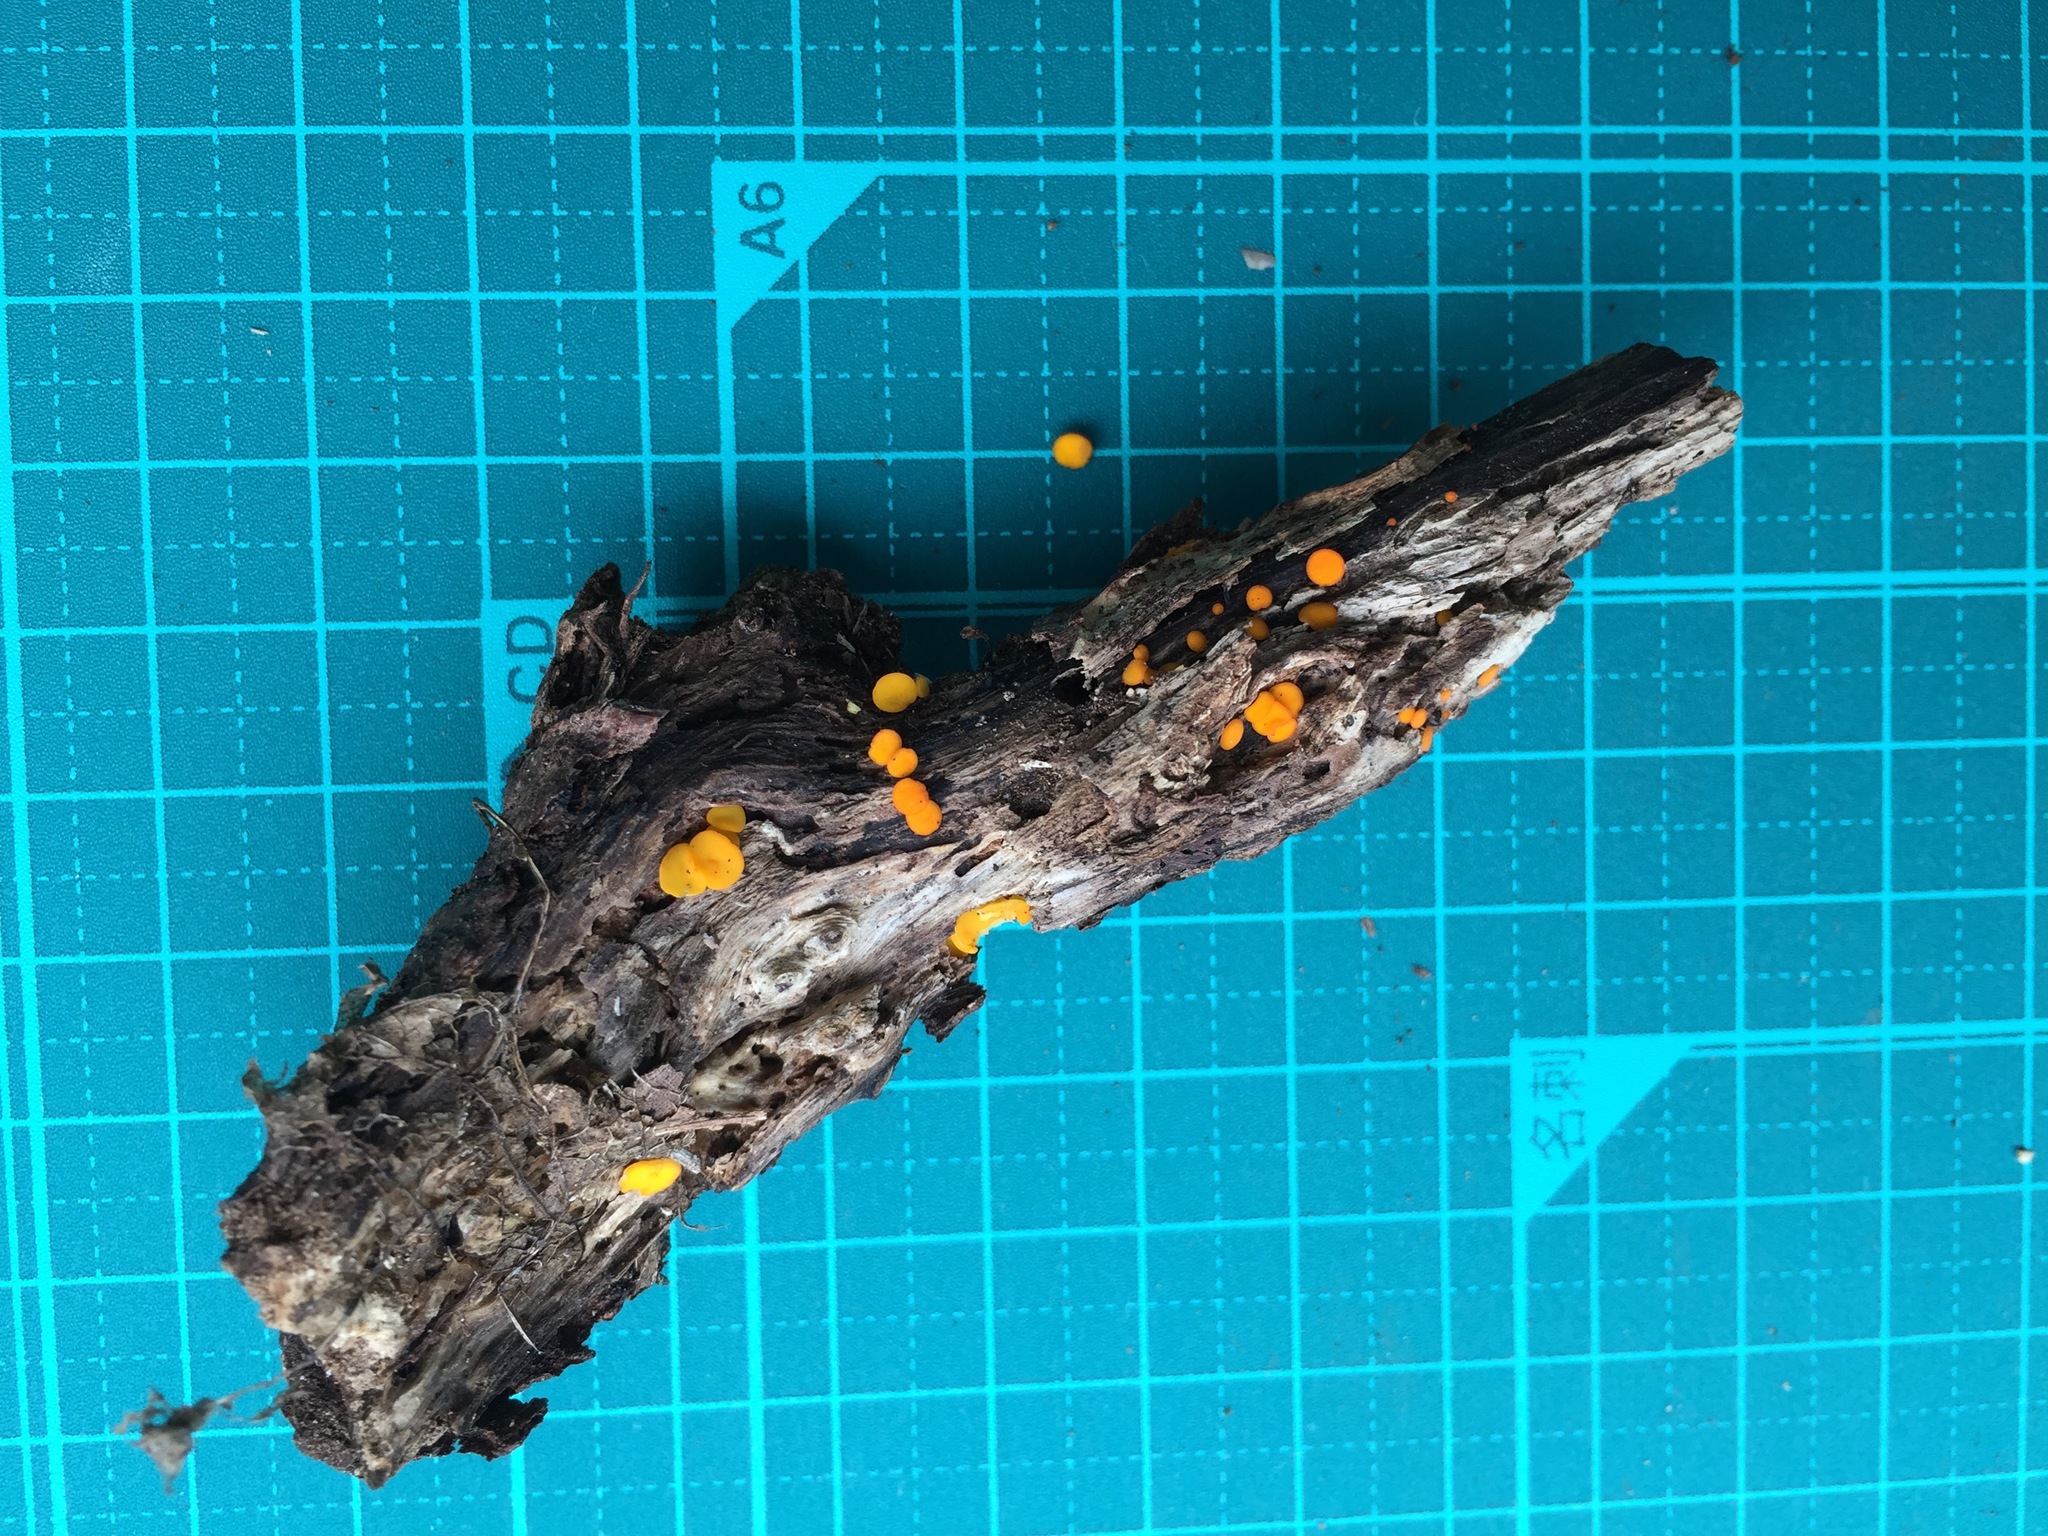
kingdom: Fungi
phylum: Ascomycota
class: Leotiomycetes
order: Helotiales
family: Helotiaceae
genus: Dicephalospora
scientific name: Dicephalospora rufocornea
